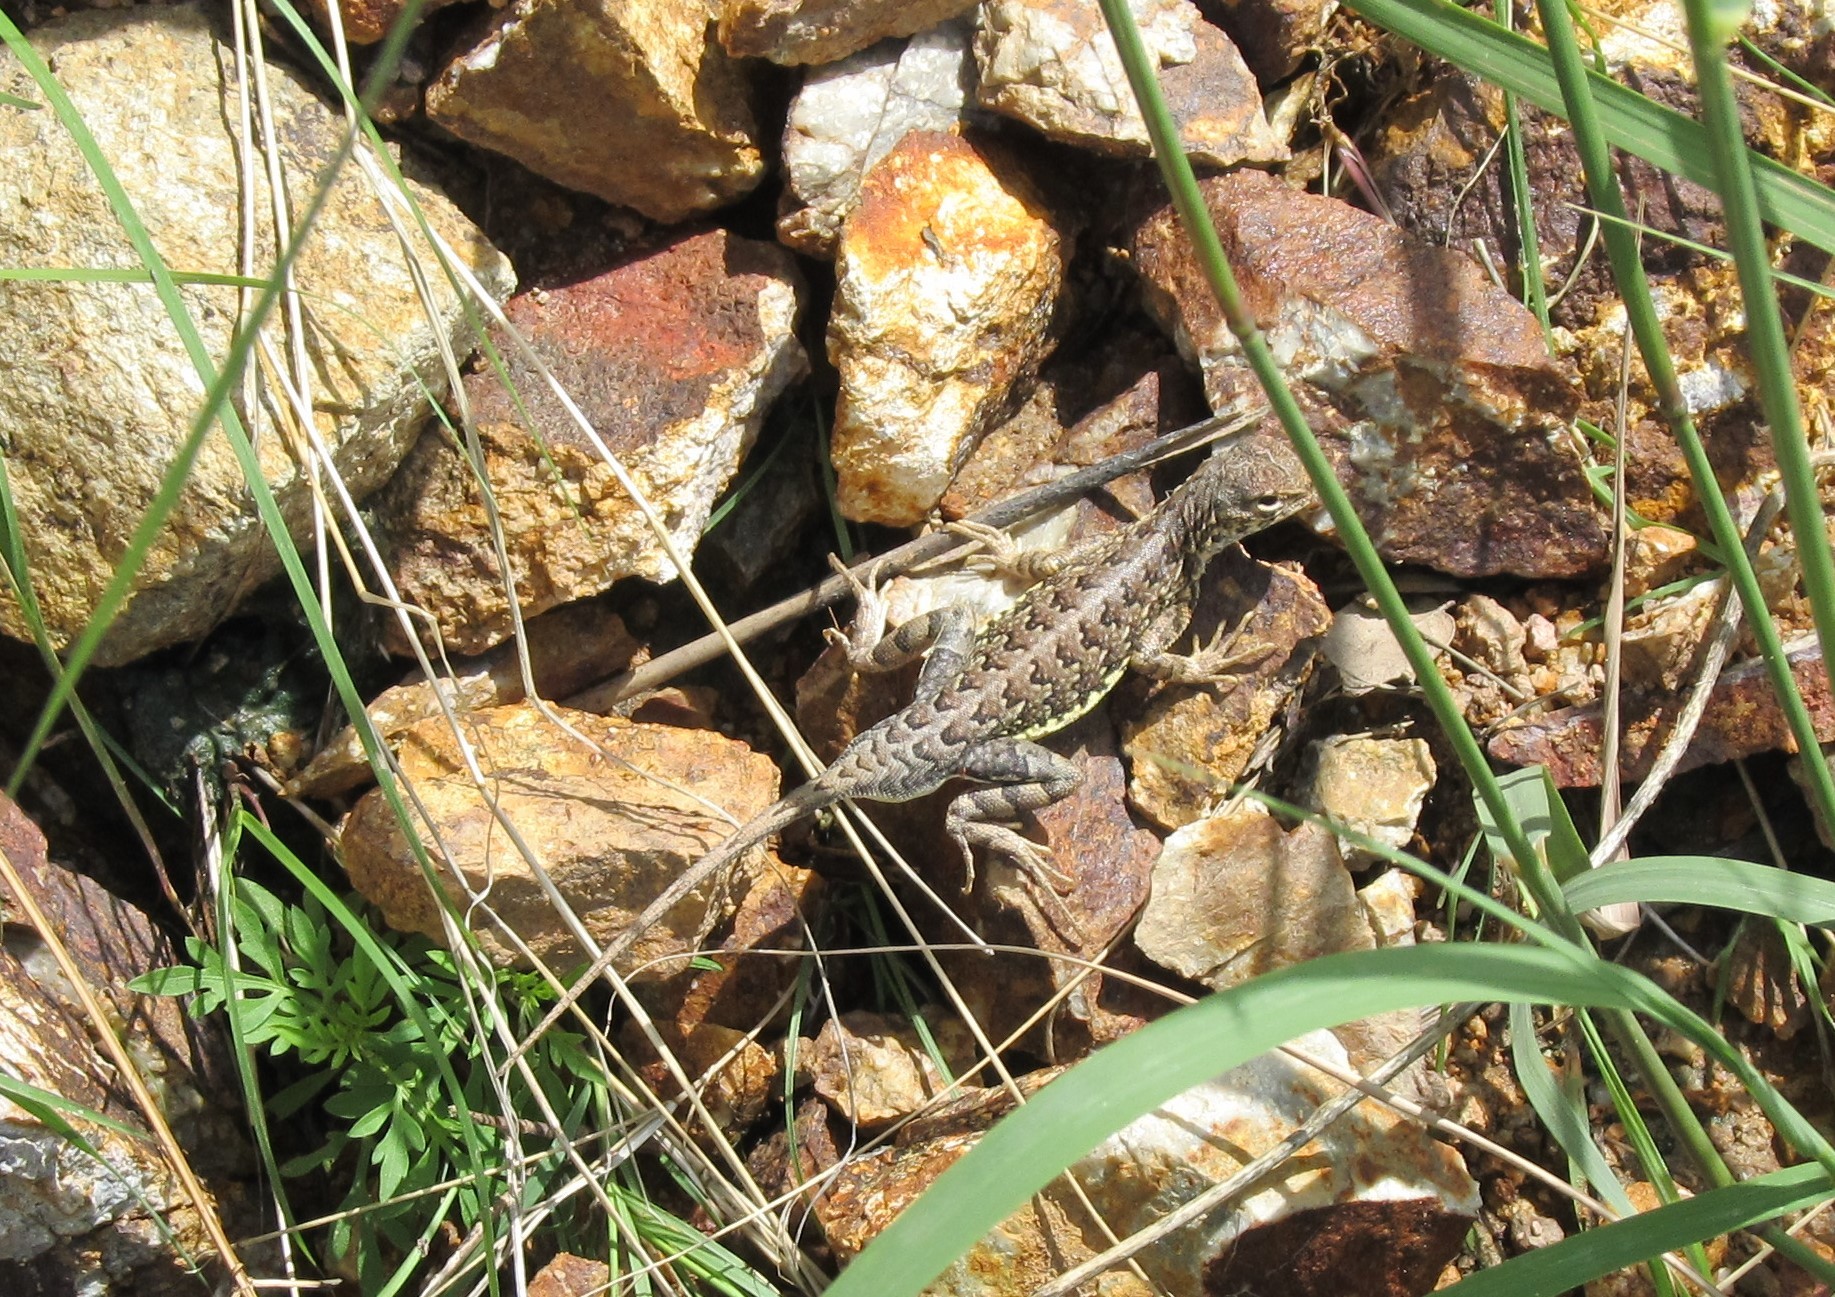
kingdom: Animalia
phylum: Chordata
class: Squamata
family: Phrynosomatidae
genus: Holbrookia
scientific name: Holbrookia elegans
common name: Elegant earless lizard
